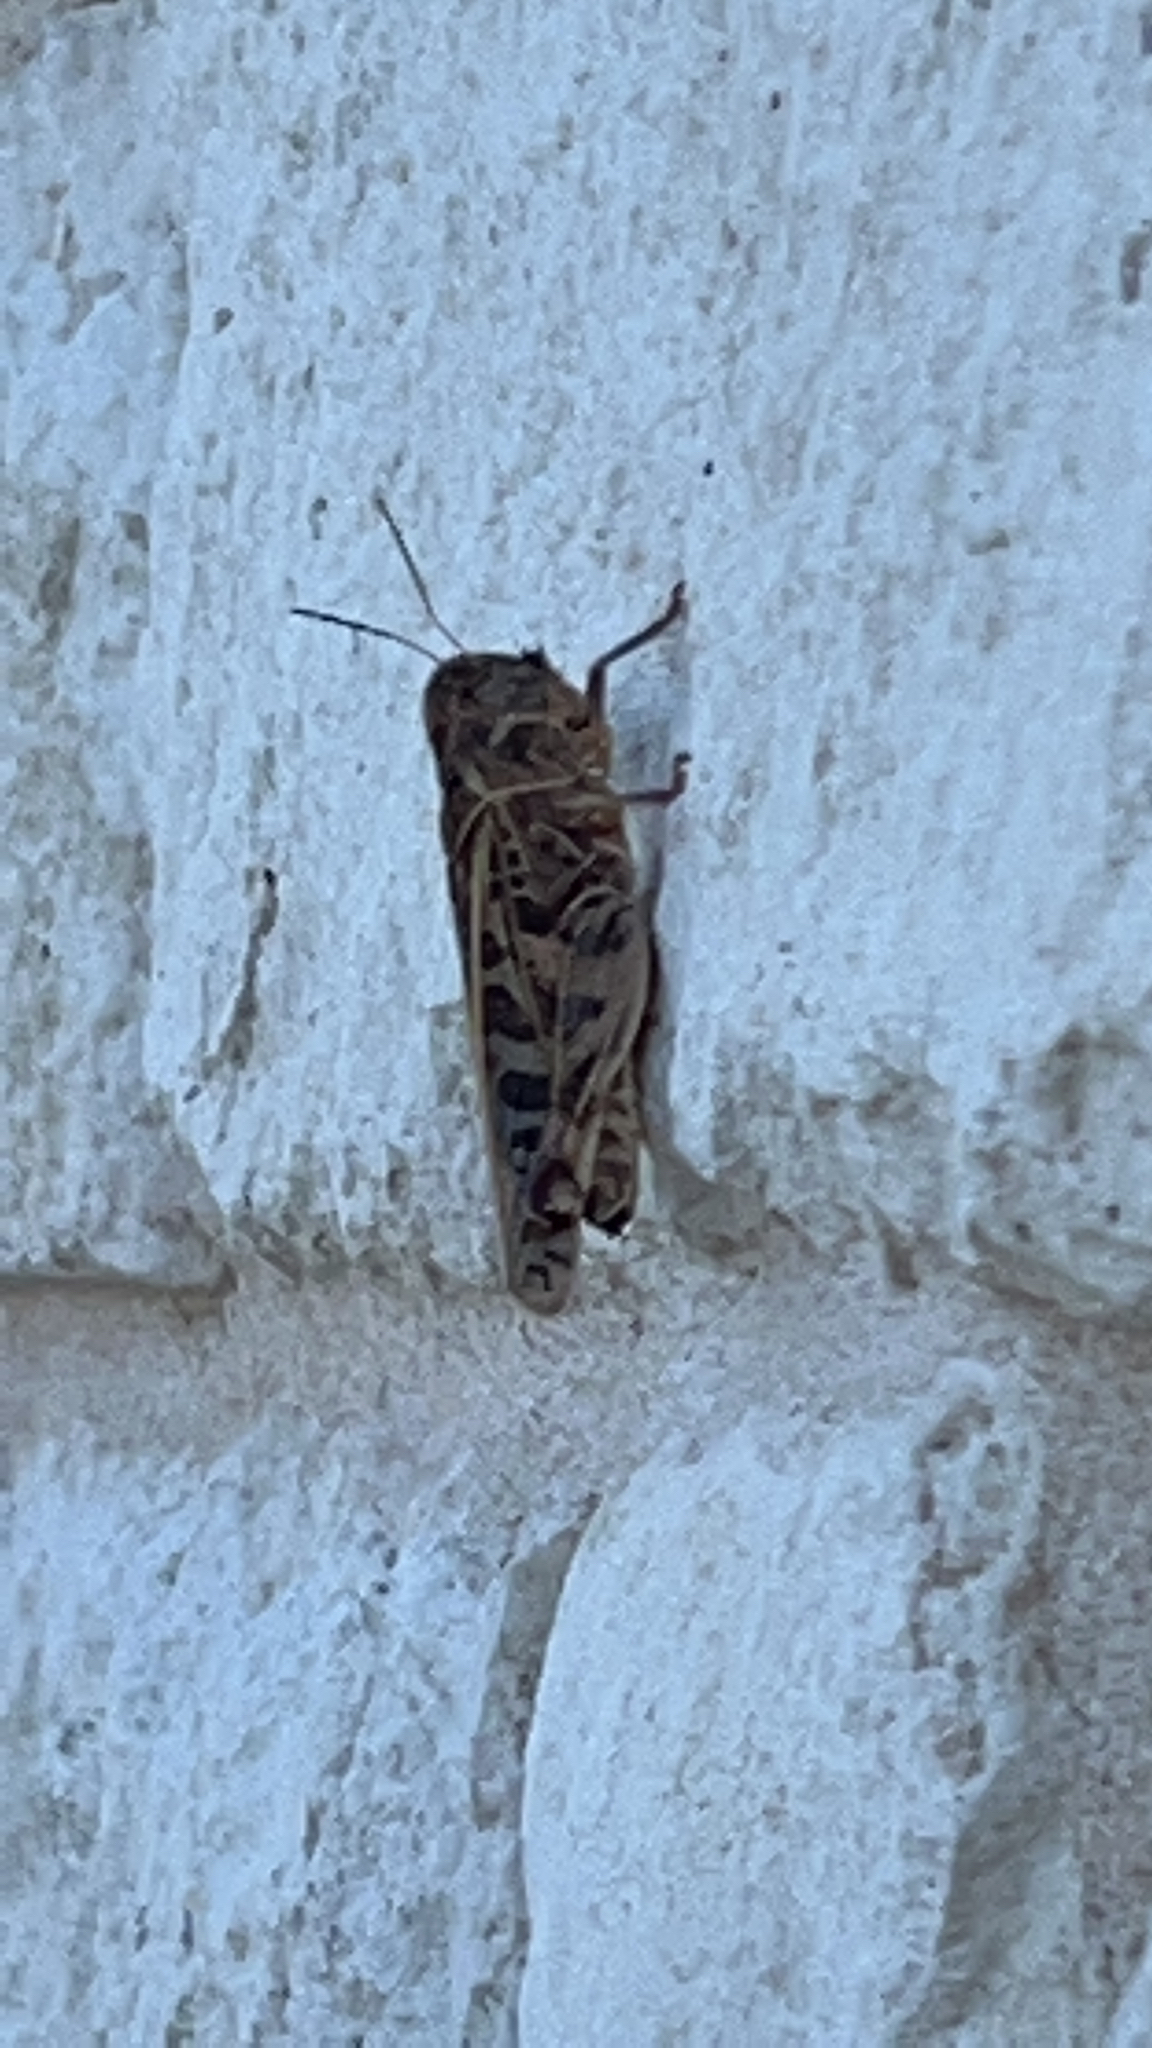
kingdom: Animalia
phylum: Arthropoda
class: Insecta
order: Orthoptera
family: Acrididae
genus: Hippiscus
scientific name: Hippiscus ocelote
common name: Wrinkled grasshopper
